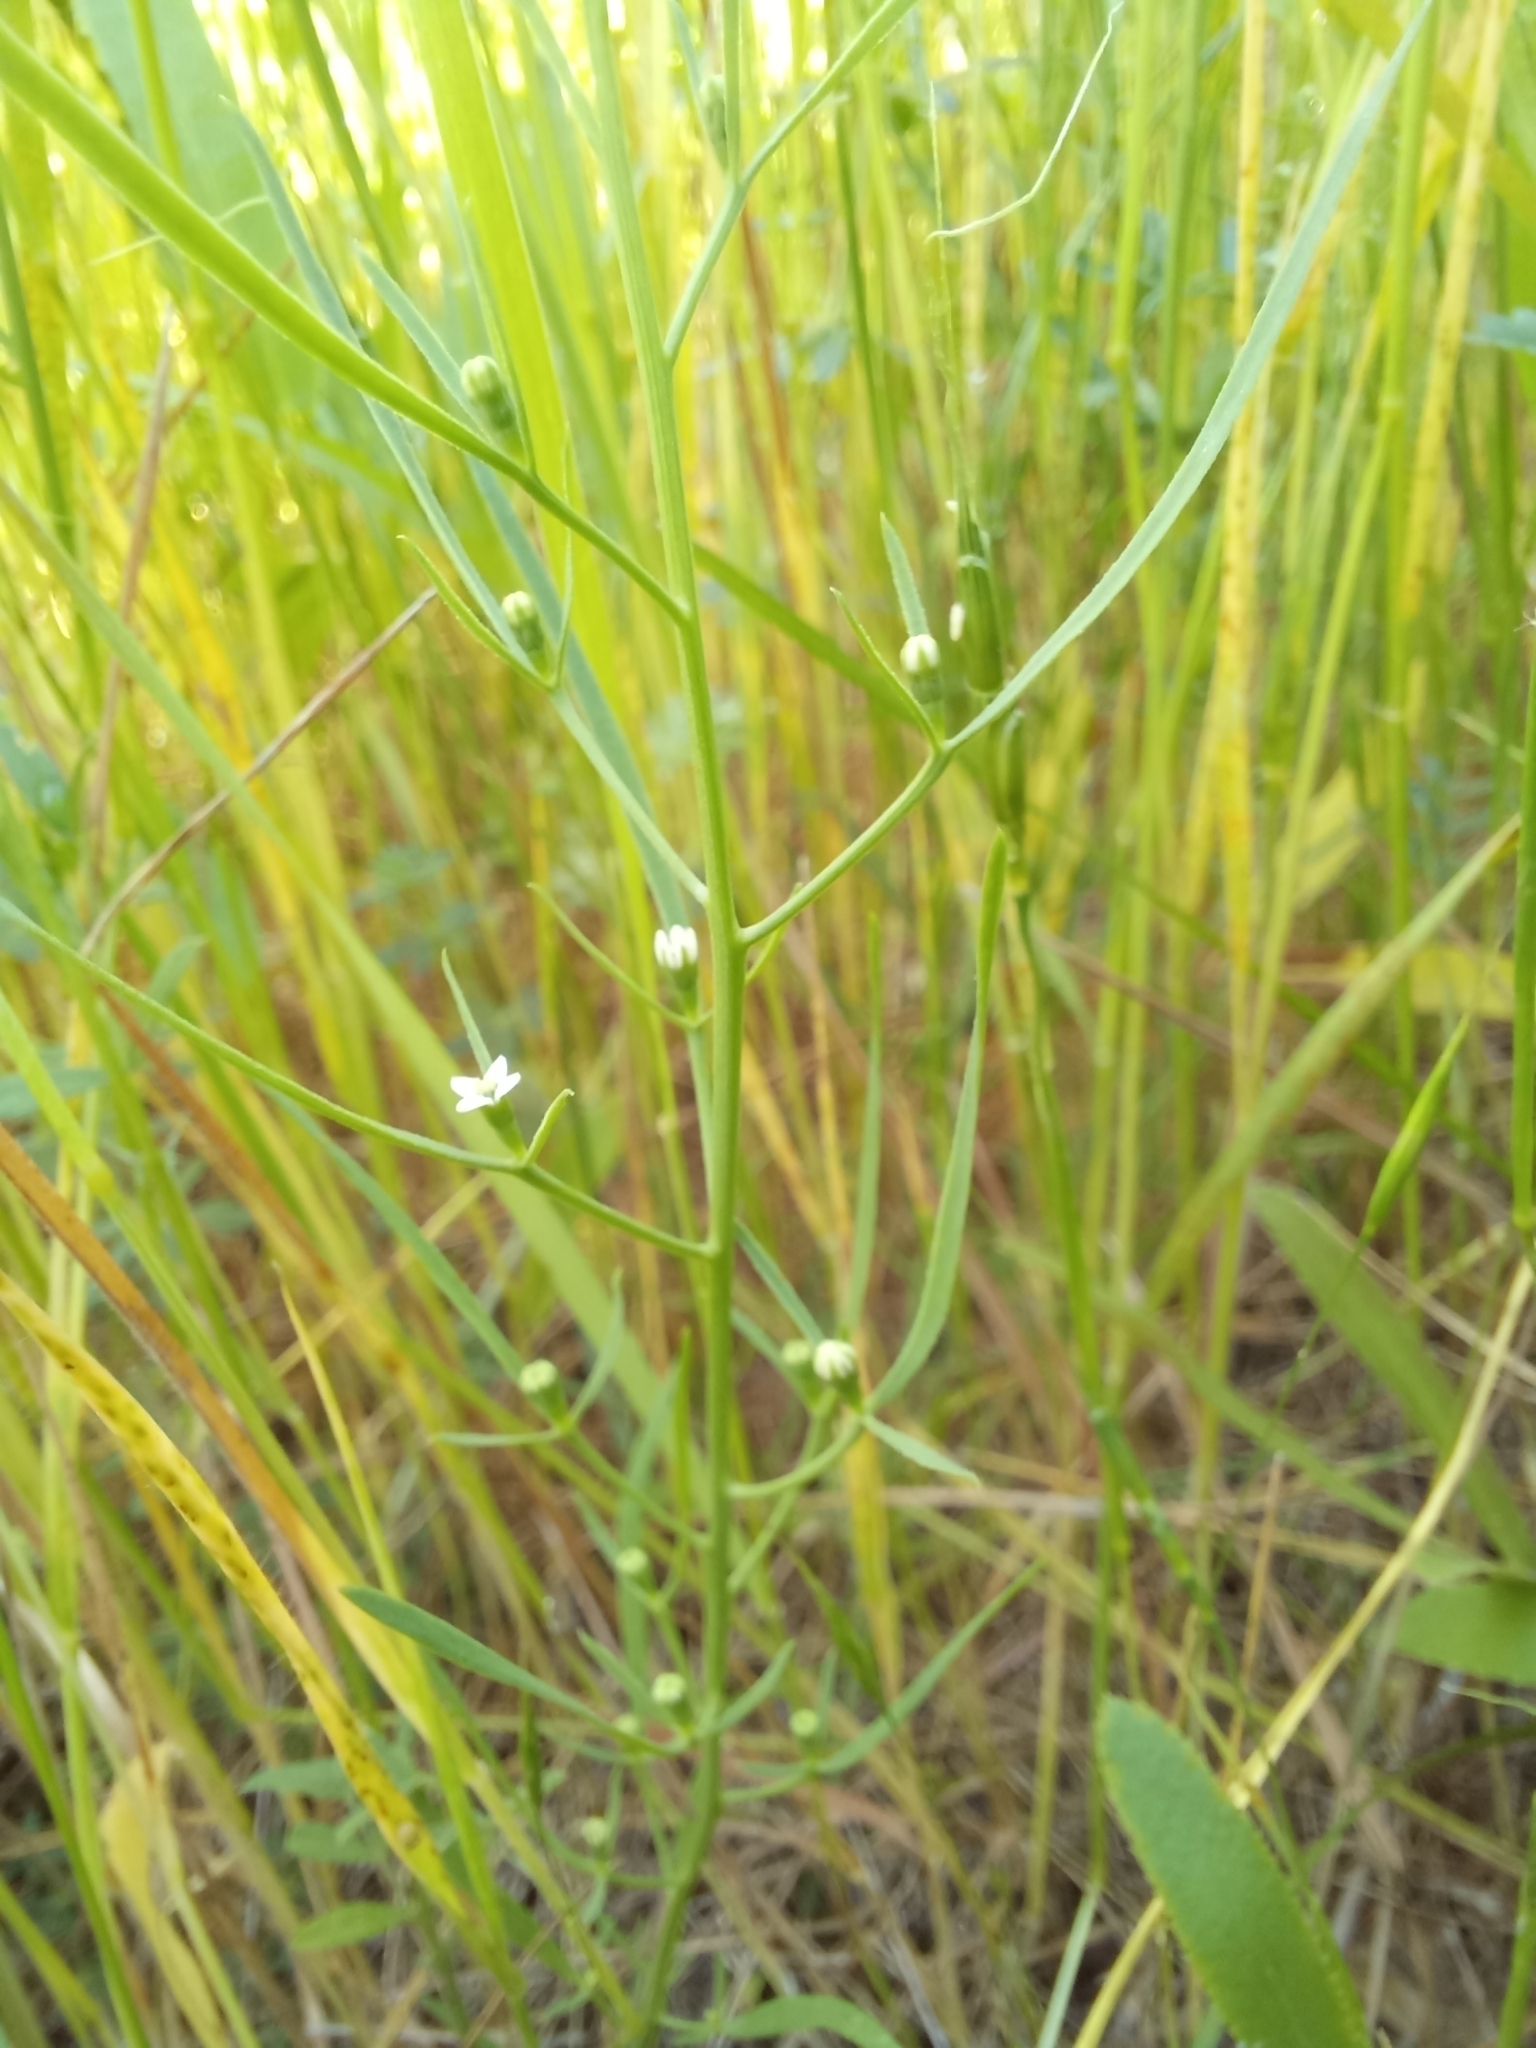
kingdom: Plantae
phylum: Tracheophyta
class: Magnoliopsida
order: Santalales
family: Thesiaceae
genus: Thesium
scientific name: Thesium ramosum
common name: Field thesium
